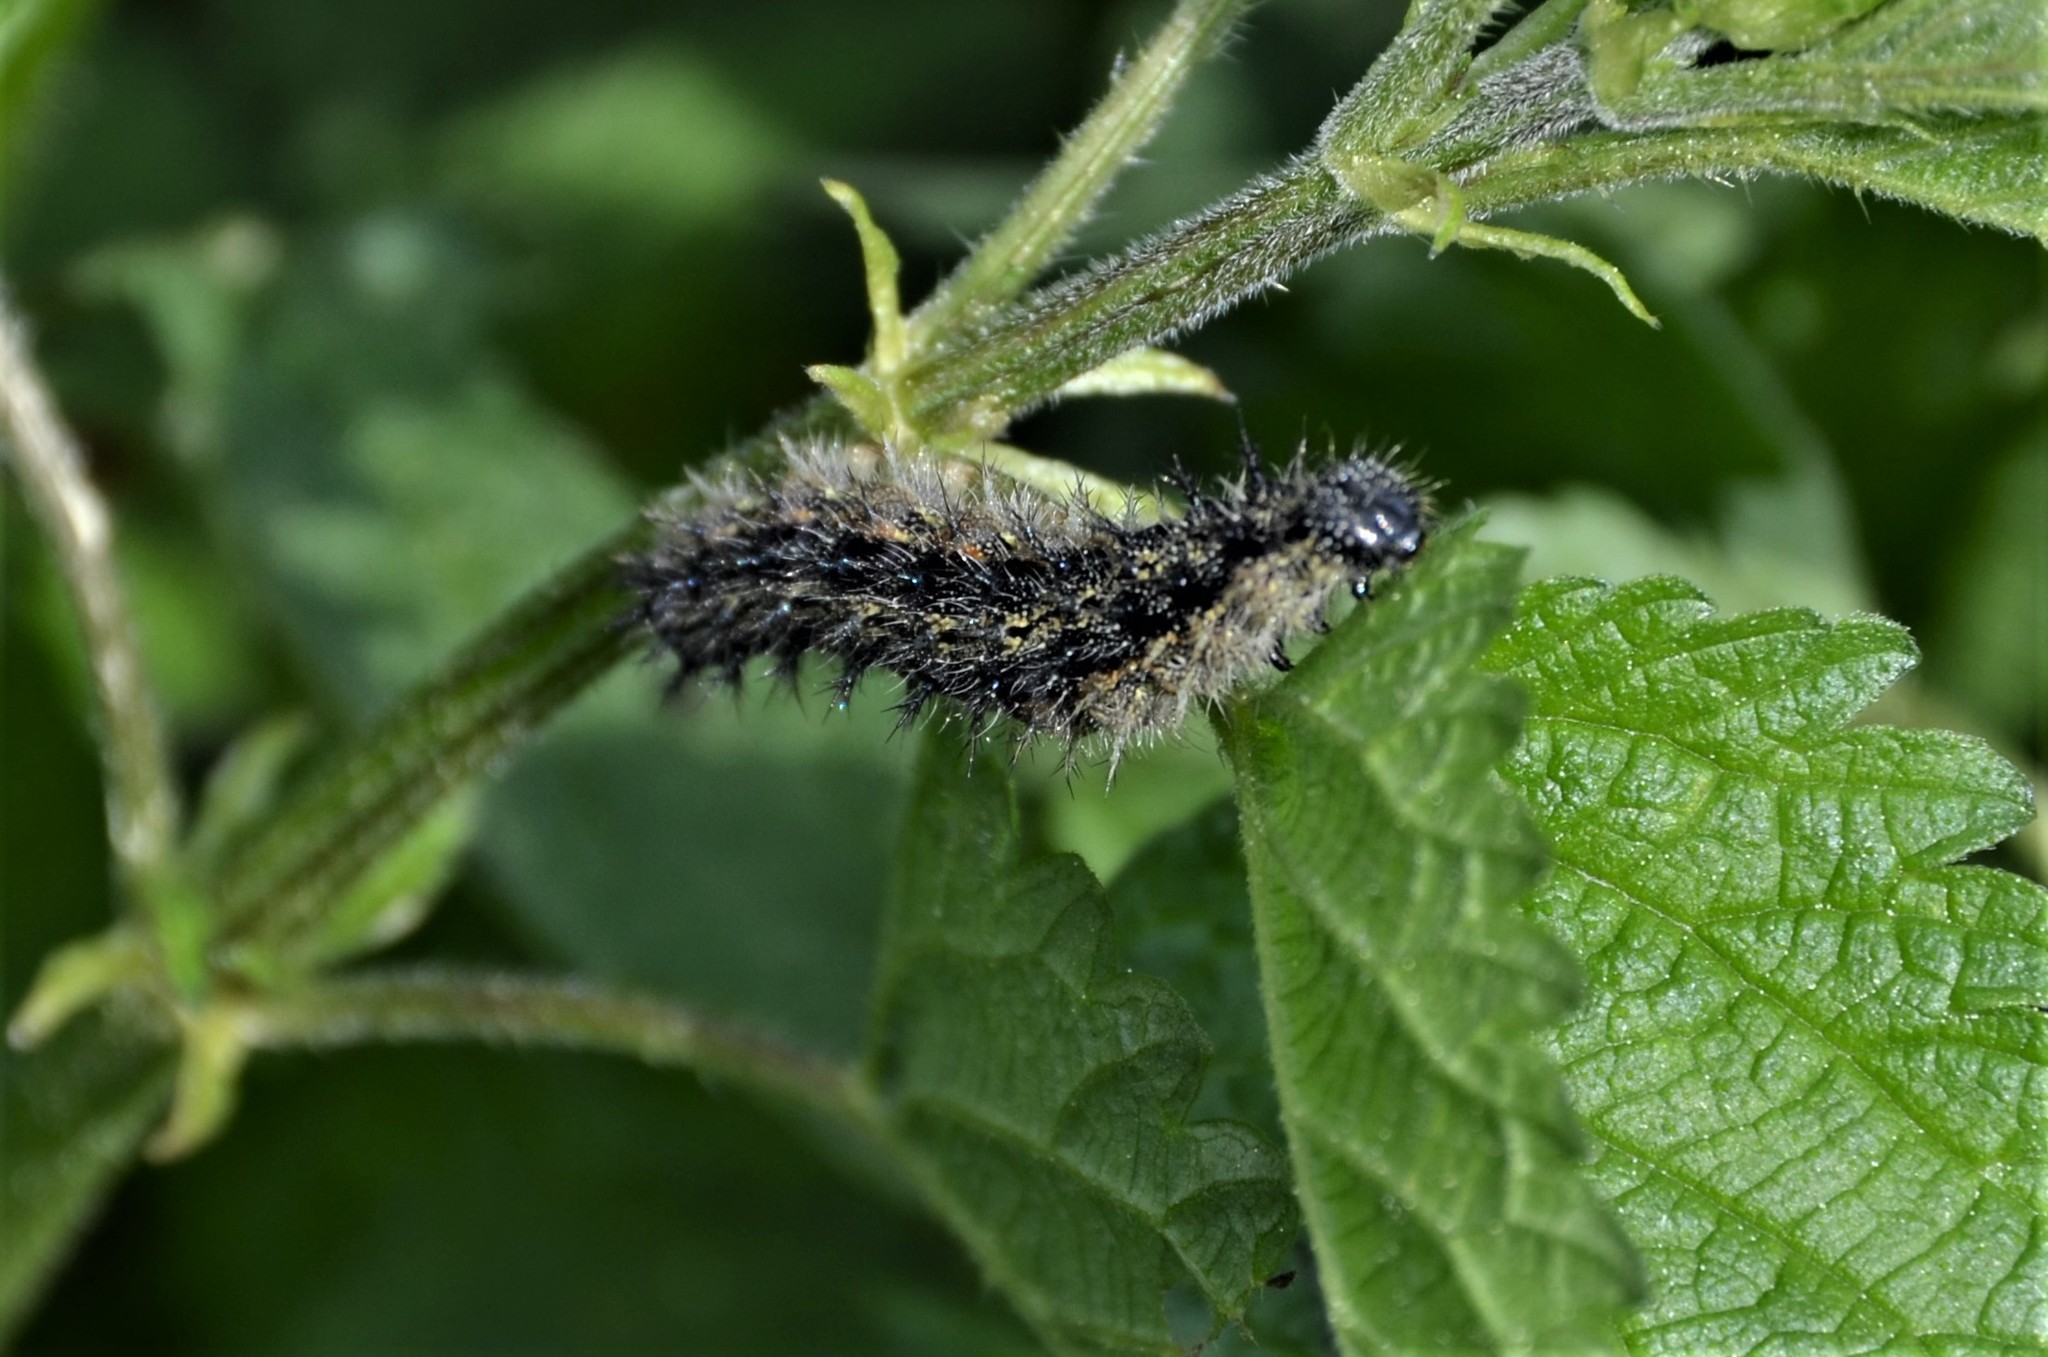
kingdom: Animalia
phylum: Arthropoda
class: Insecta
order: Lepidoptera
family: Nymphalidae
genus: Aglais
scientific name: Aglais urticae
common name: Small tortoiseshell
